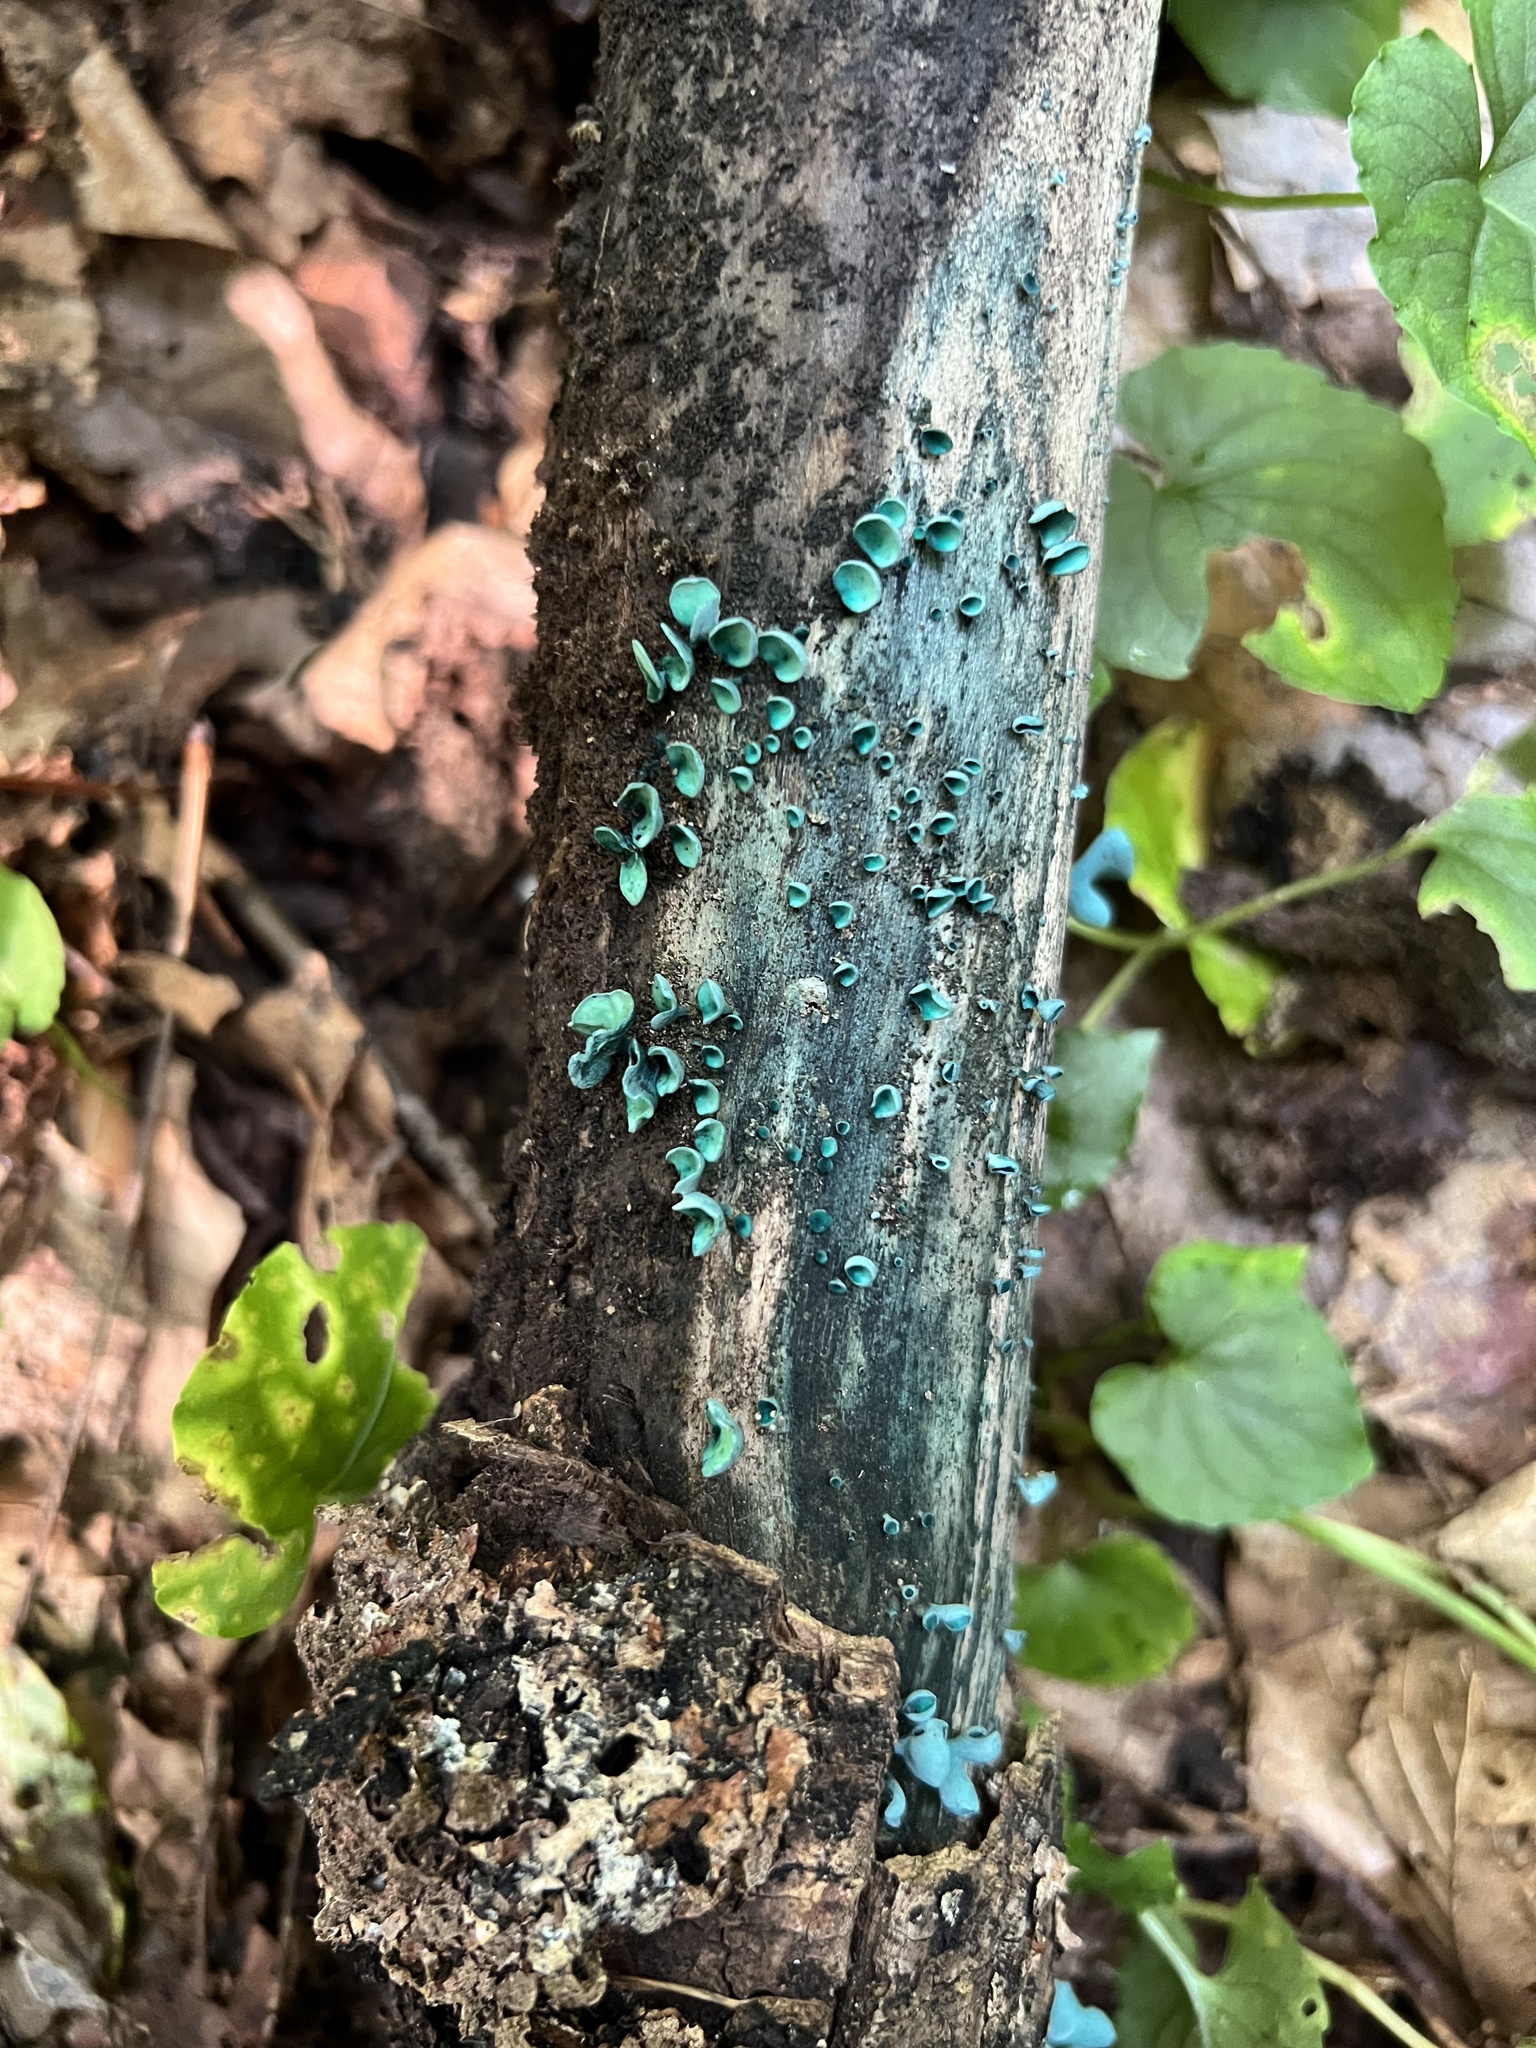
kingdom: Fungi
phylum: Ascomycota
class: Leotiomycetes
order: Helotiales
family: Chlorociboriaceae
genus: Chlorociboria
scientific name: Chlorociboria aeruginascens
